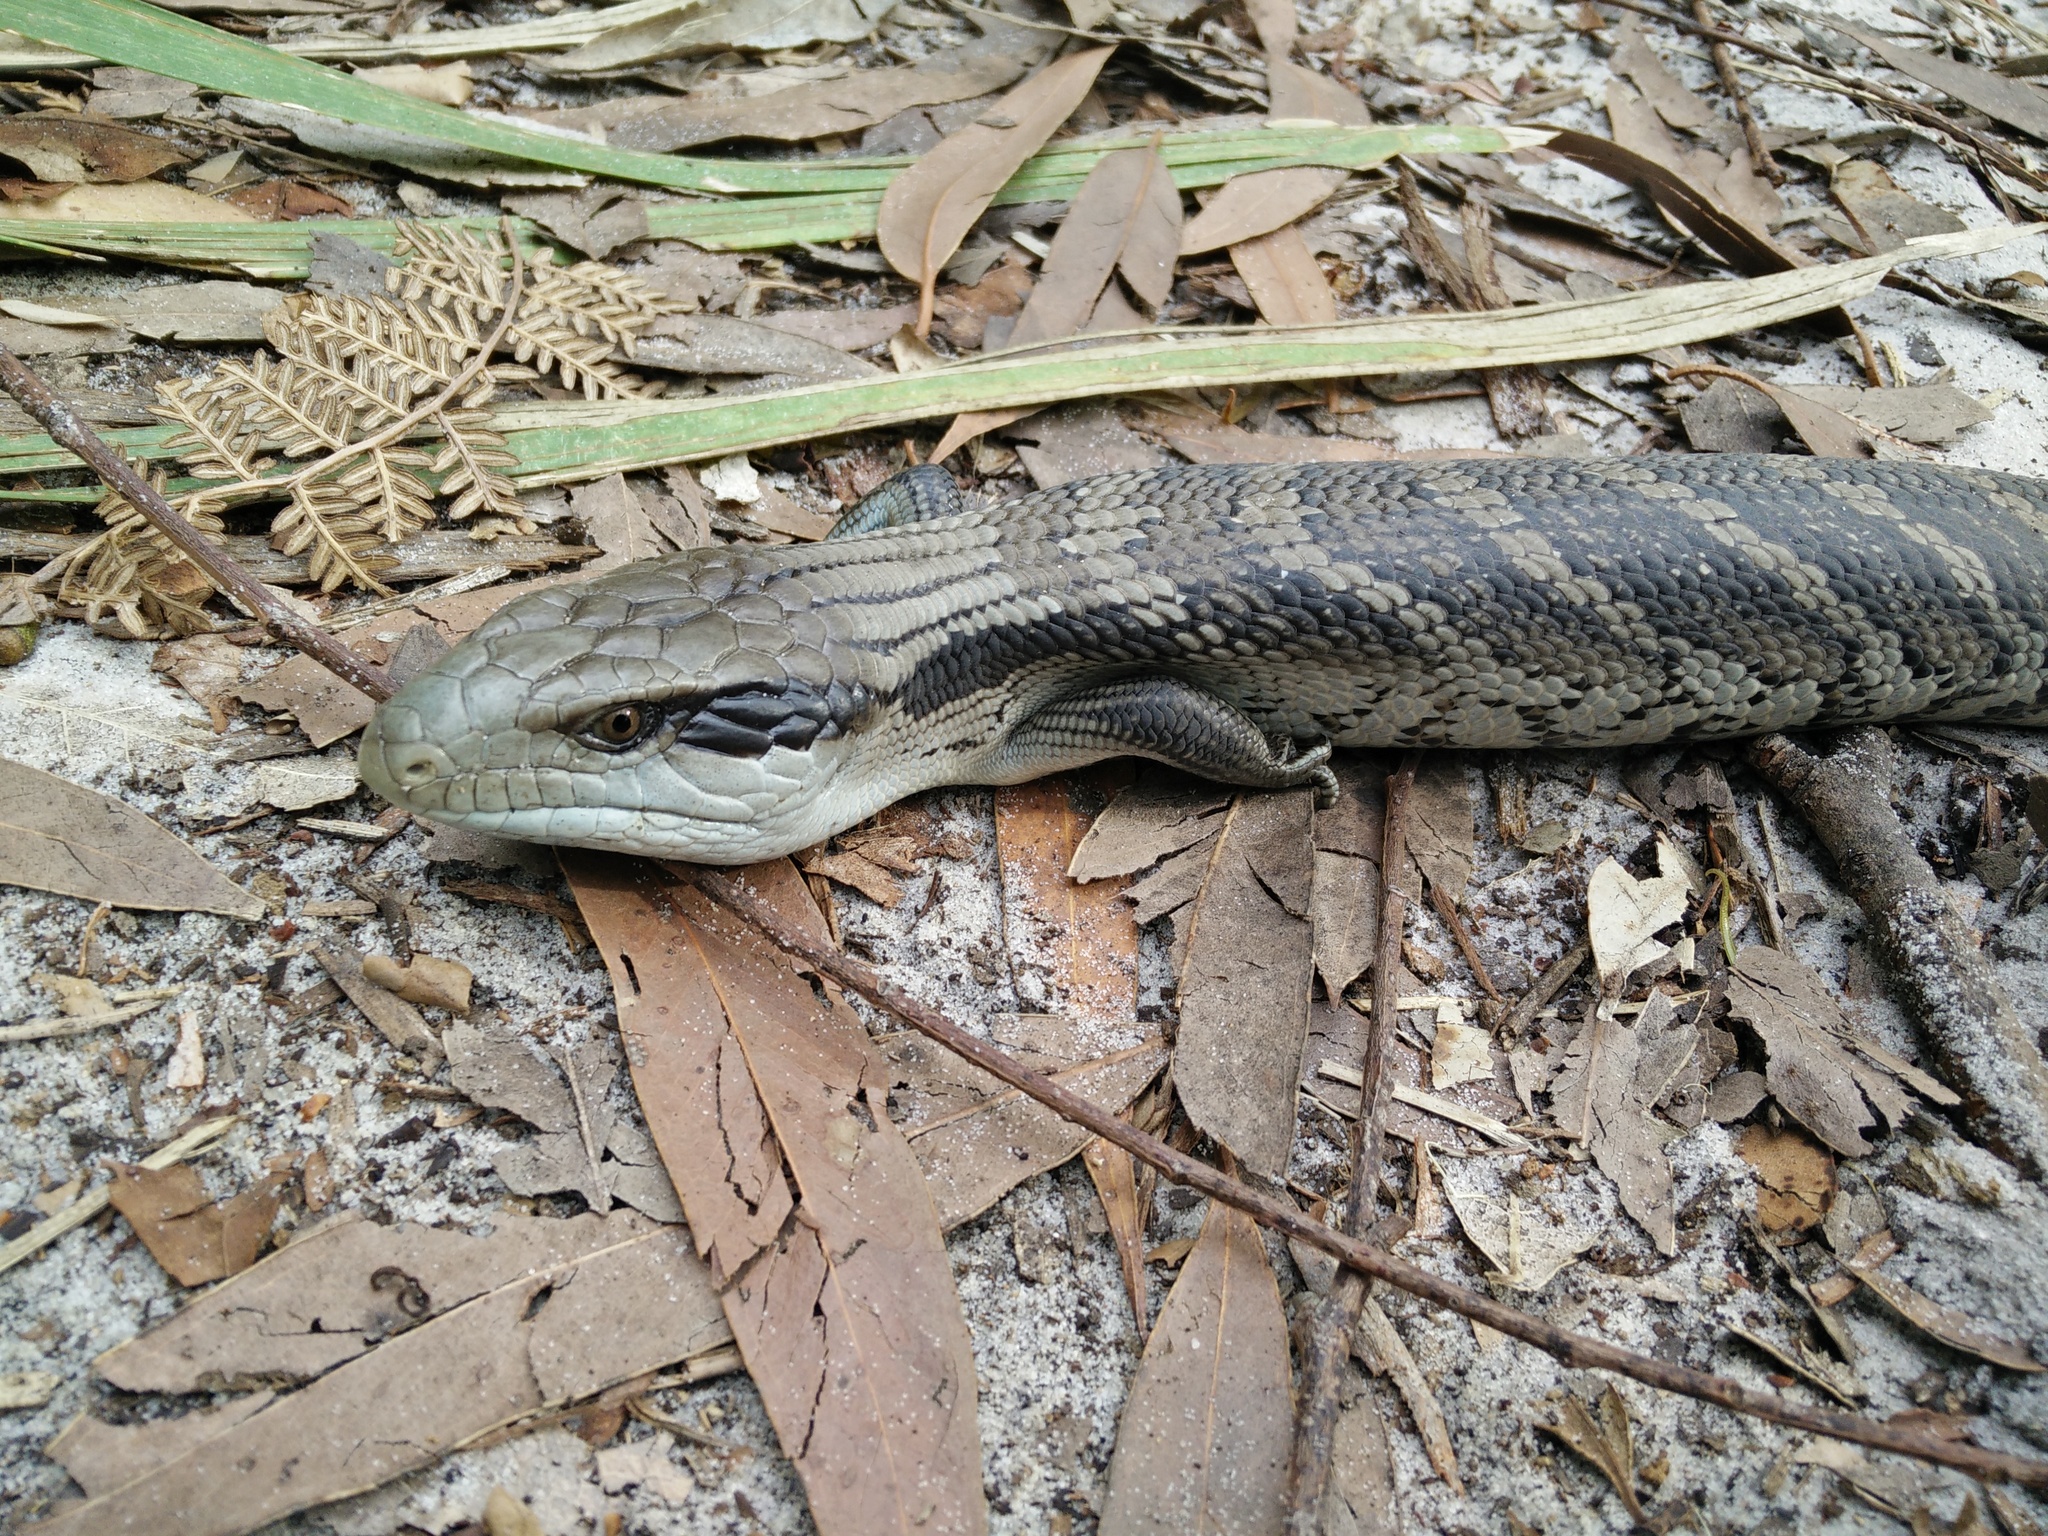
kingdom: Animalia
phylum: Chordata
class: Squamata
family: Scincidae
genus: Tiliqua
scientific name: Tiliqua scincoides
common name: Common bluetongue
